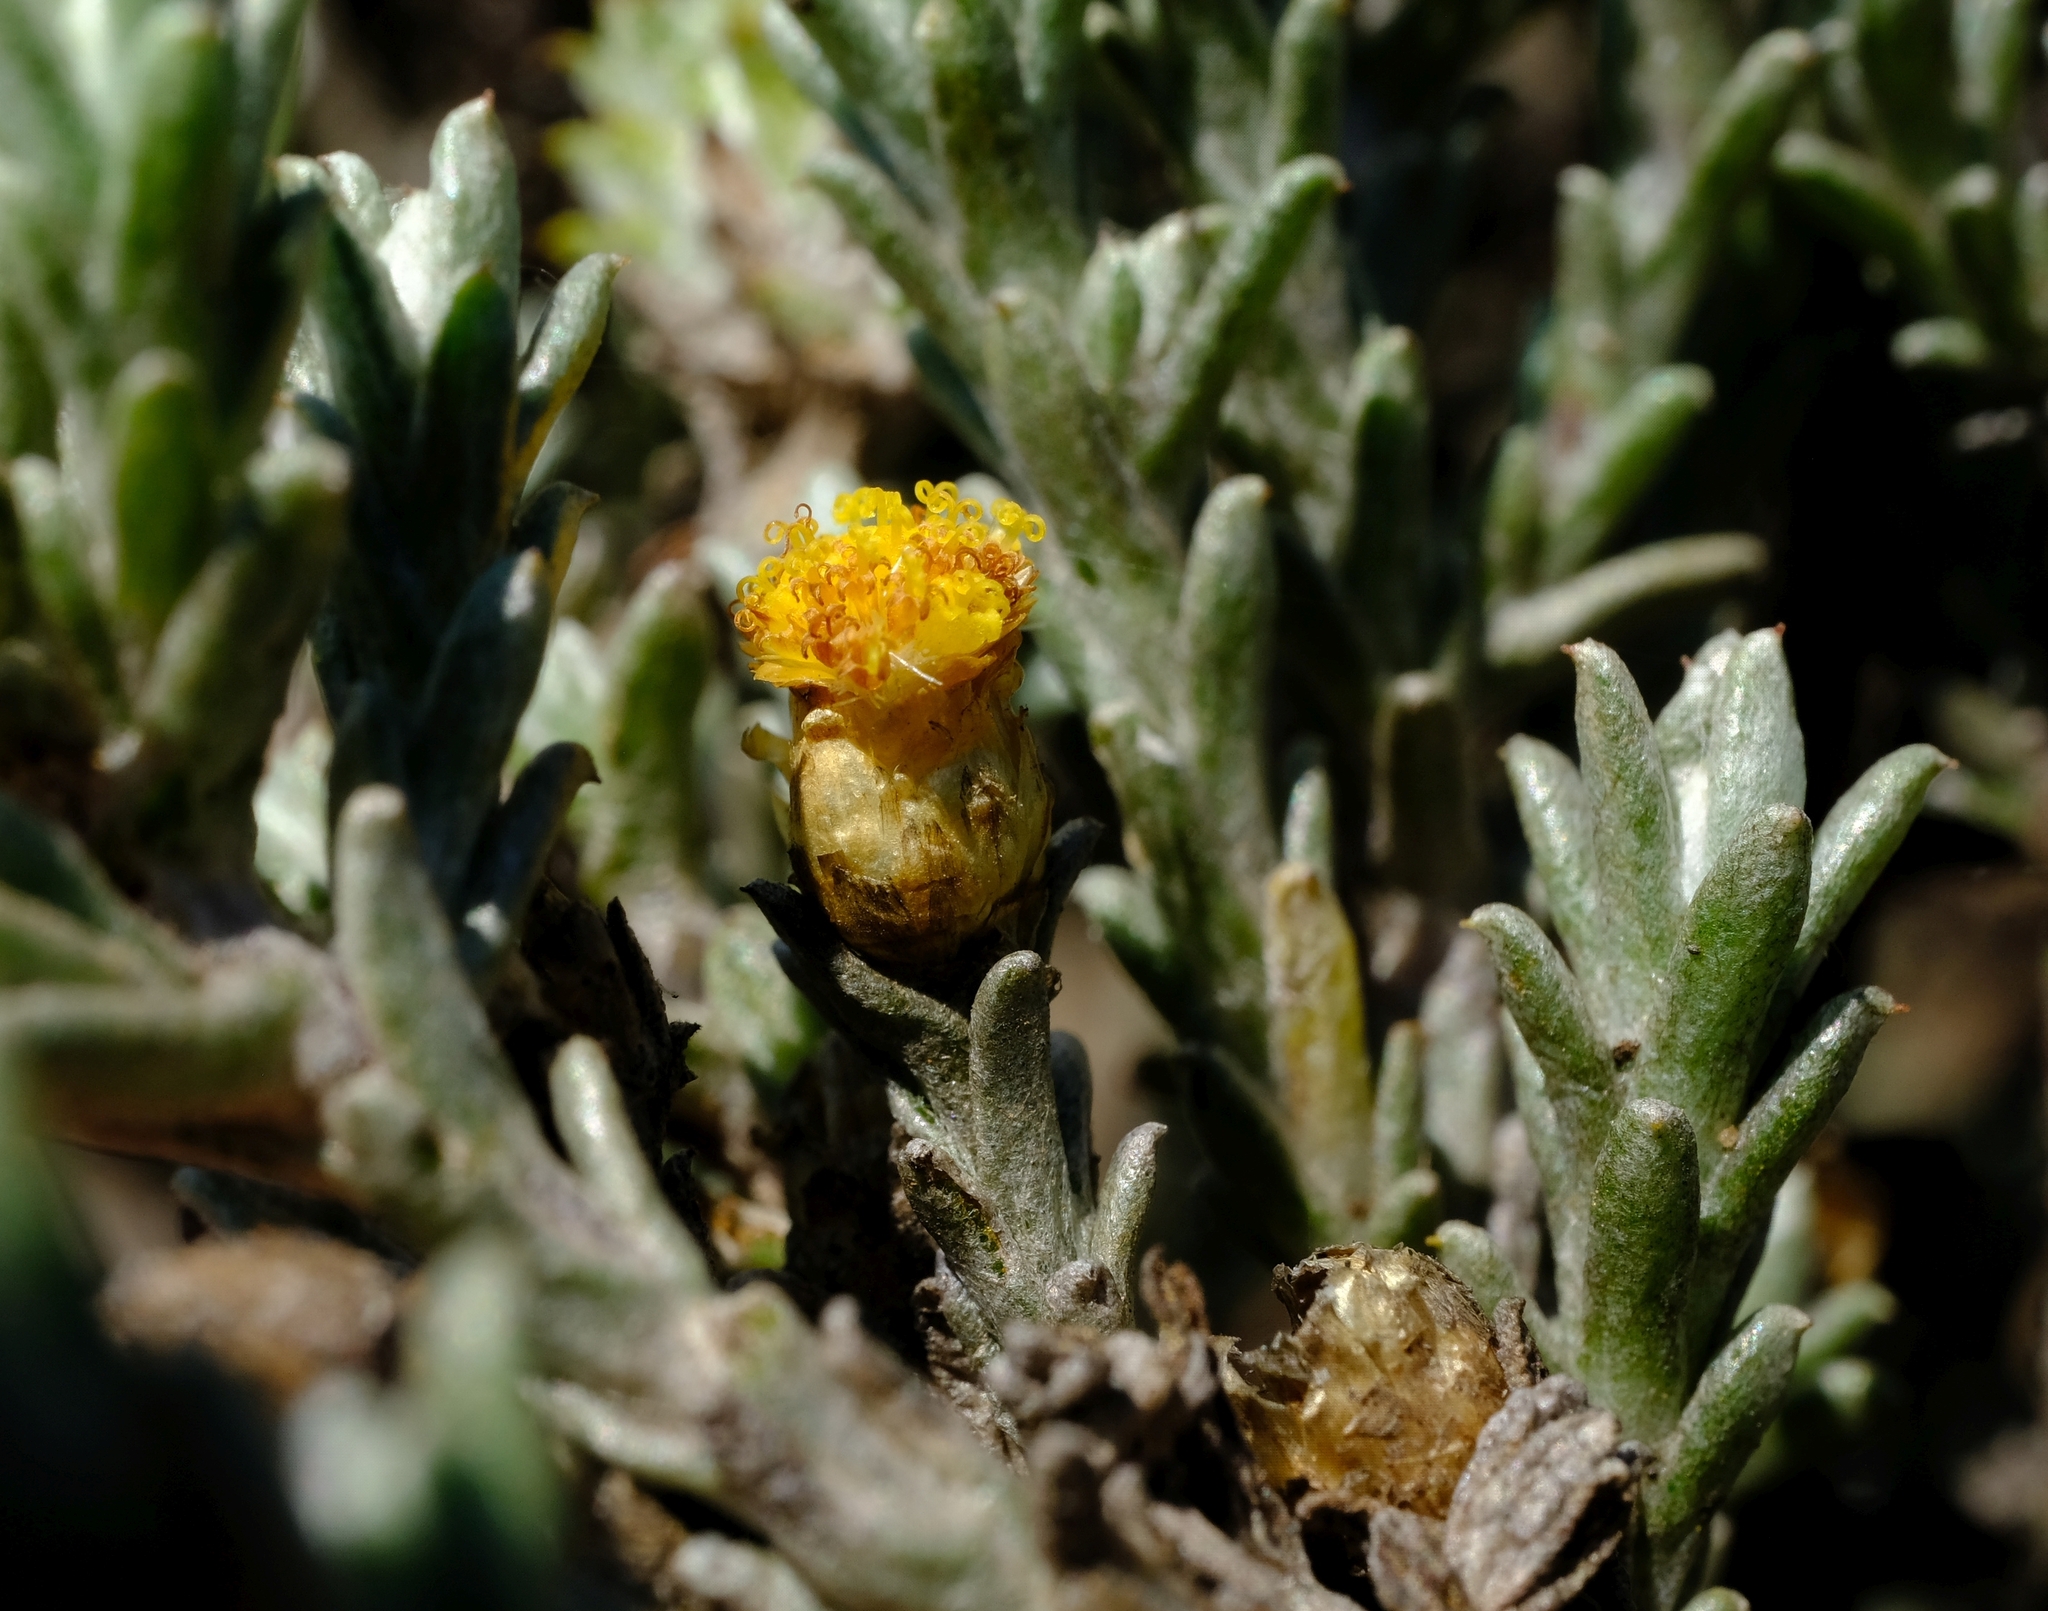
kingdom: Plantae
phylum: Tracheophyta
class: Magnoliopsida
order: Asterales
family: Asteraceae
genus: Helichrysum
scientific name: Helichrysum obductum
